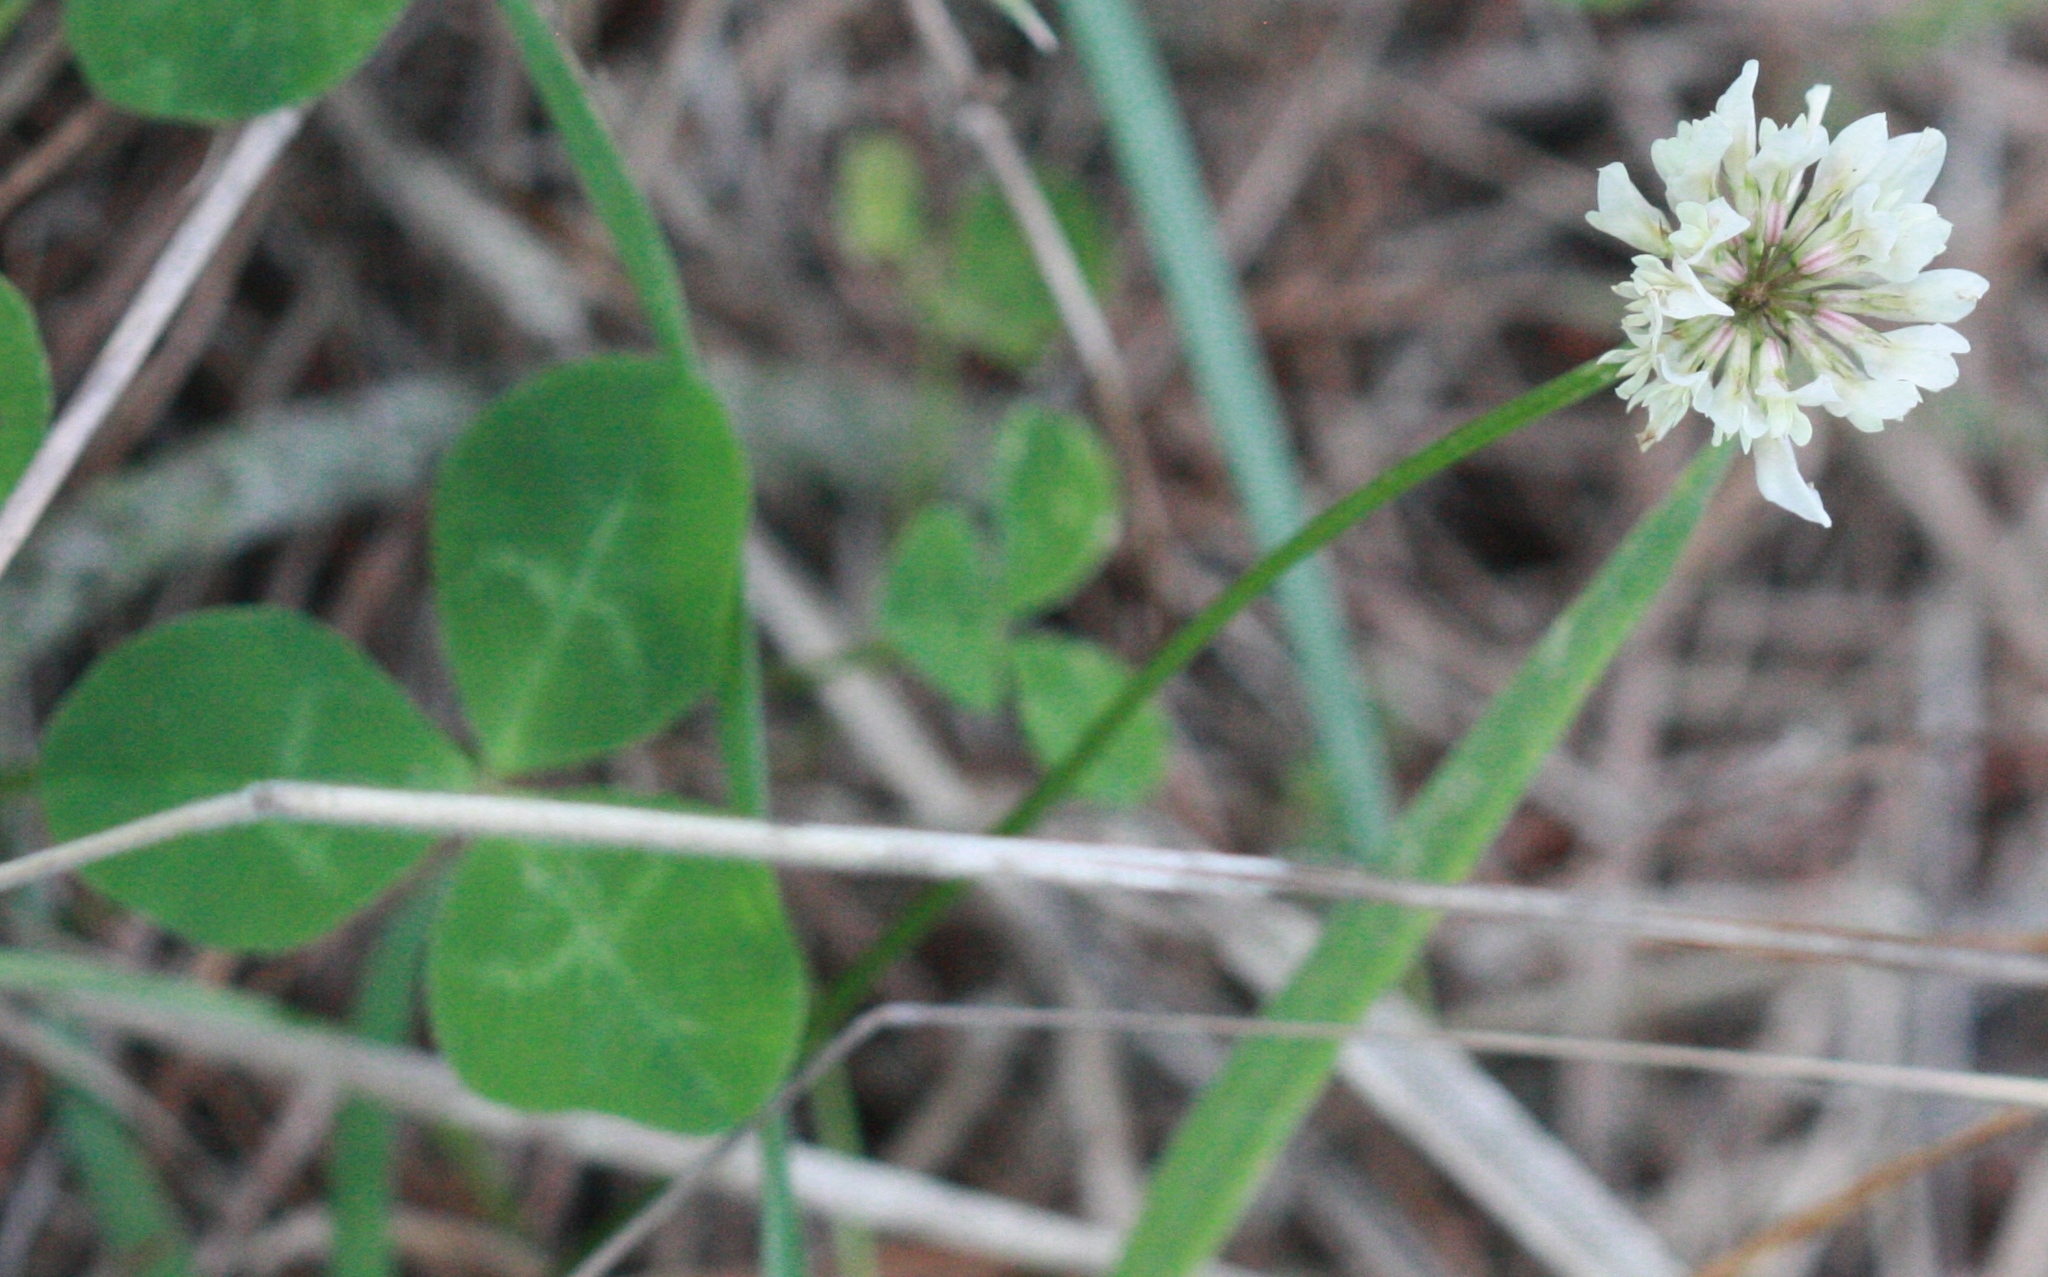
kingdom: Plantae
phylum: Tracheophyta
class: Magnoliopsida
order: Fabales
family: Fabaceae
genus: Trifolium
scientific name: Trifolium repens
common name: White clover
